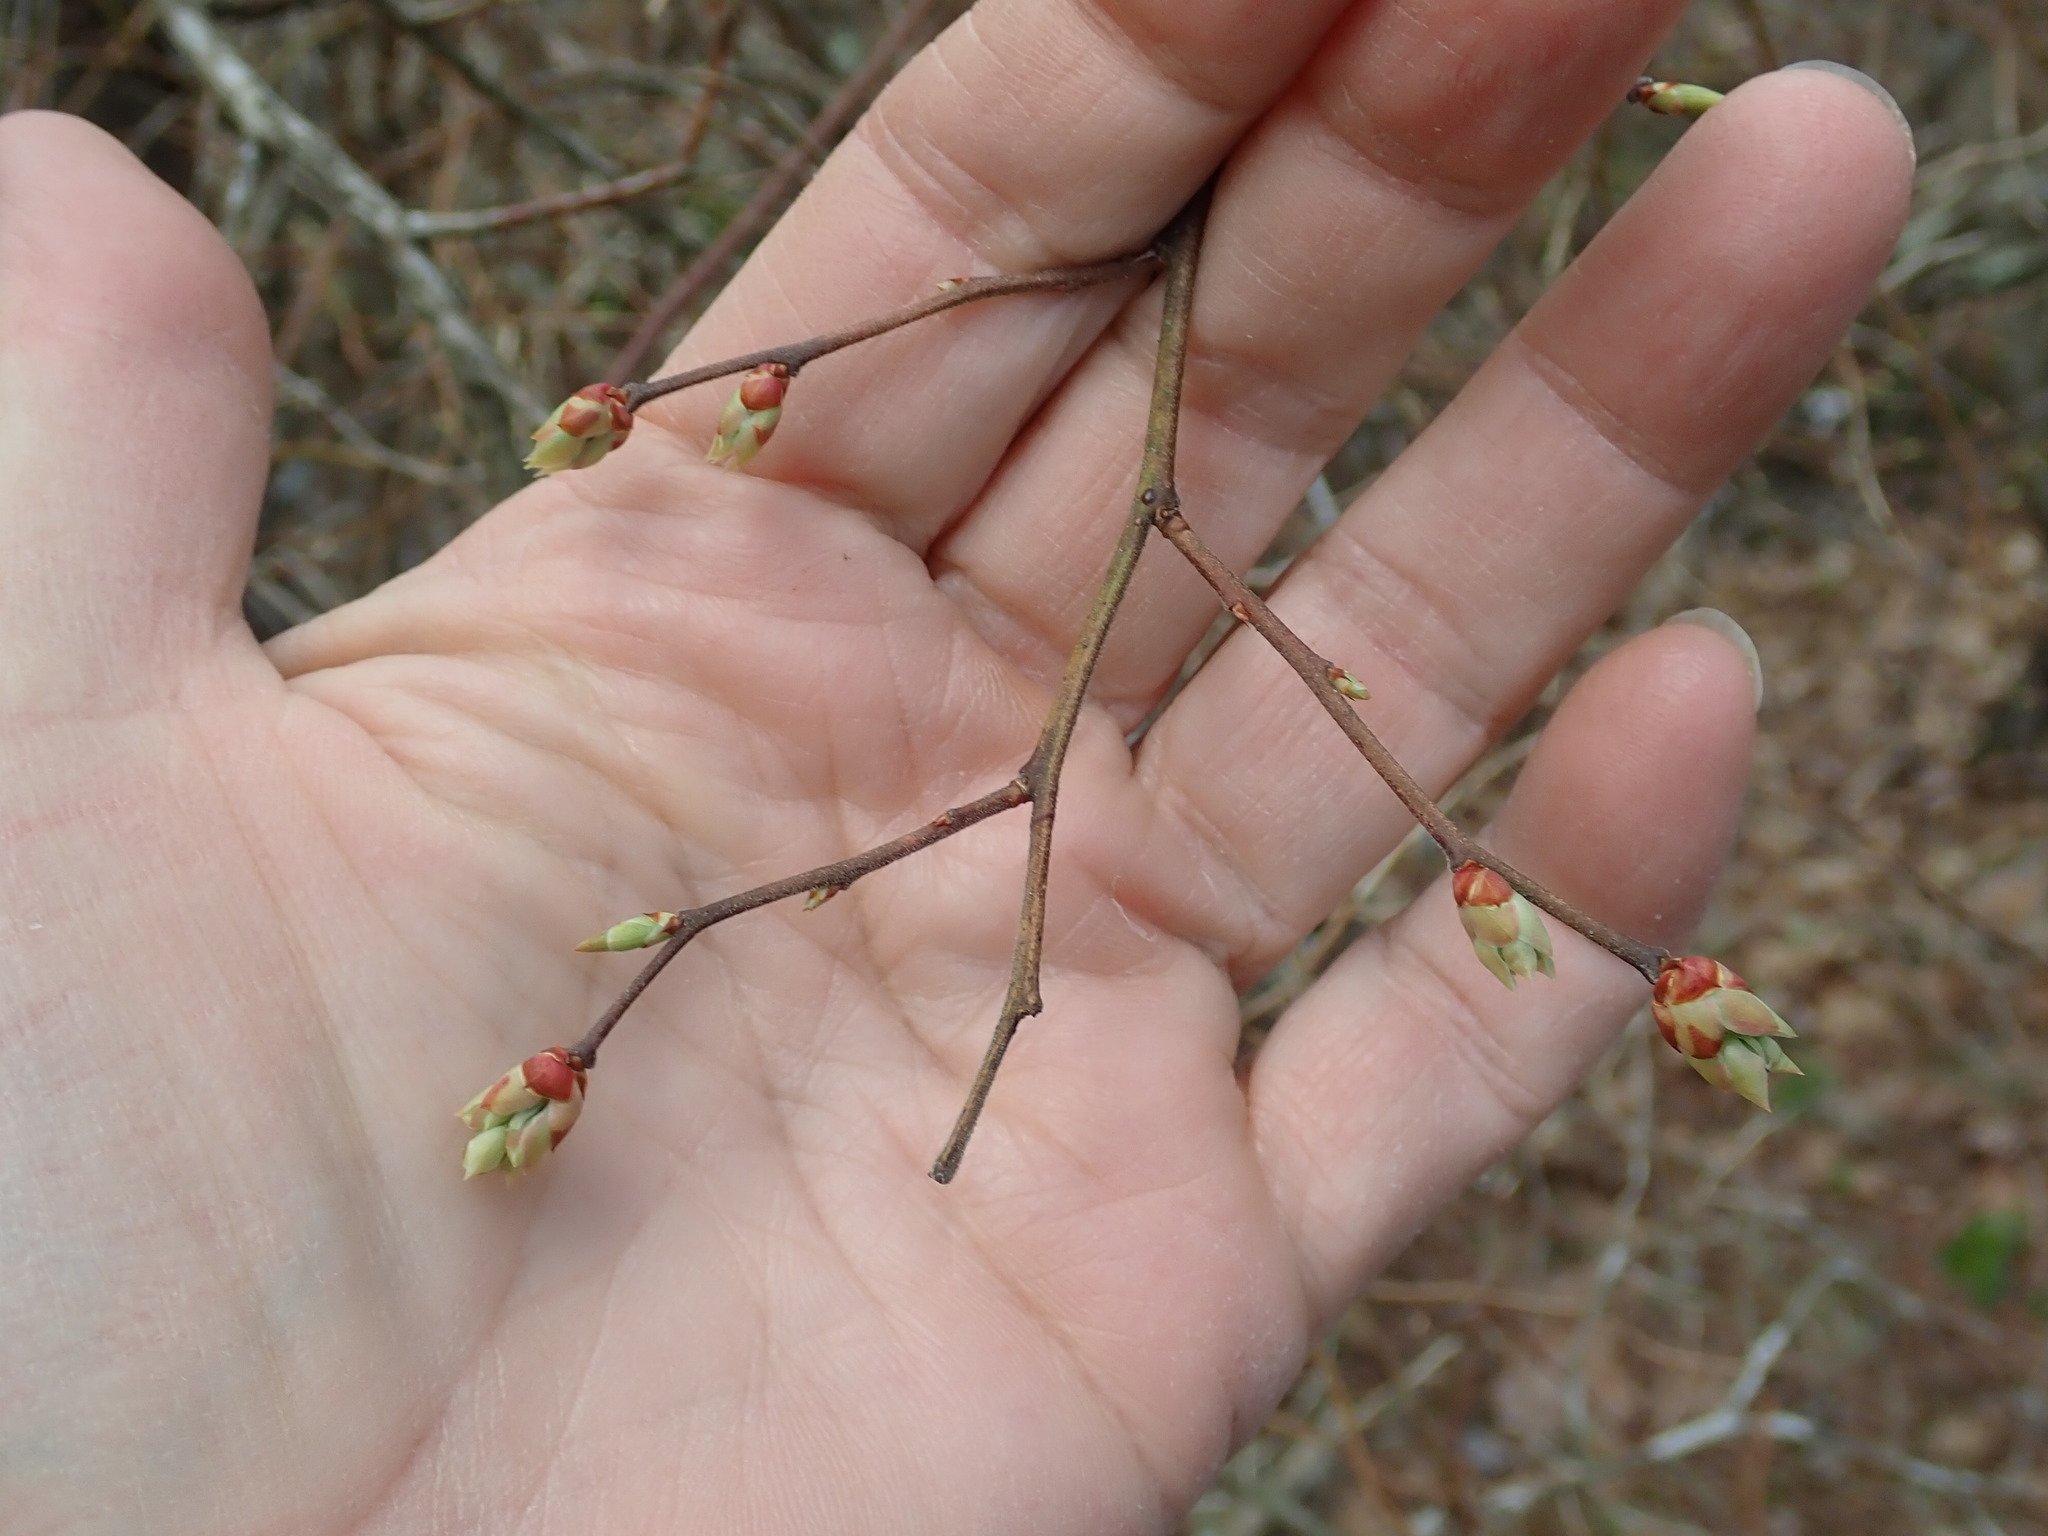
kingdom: Plantae
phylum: Tracheophyta
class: Magnoliopsida
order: Ericales
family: Ericaceae
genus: Vaccinium
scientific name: Vaccinium corymbosum
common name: Blueberry
